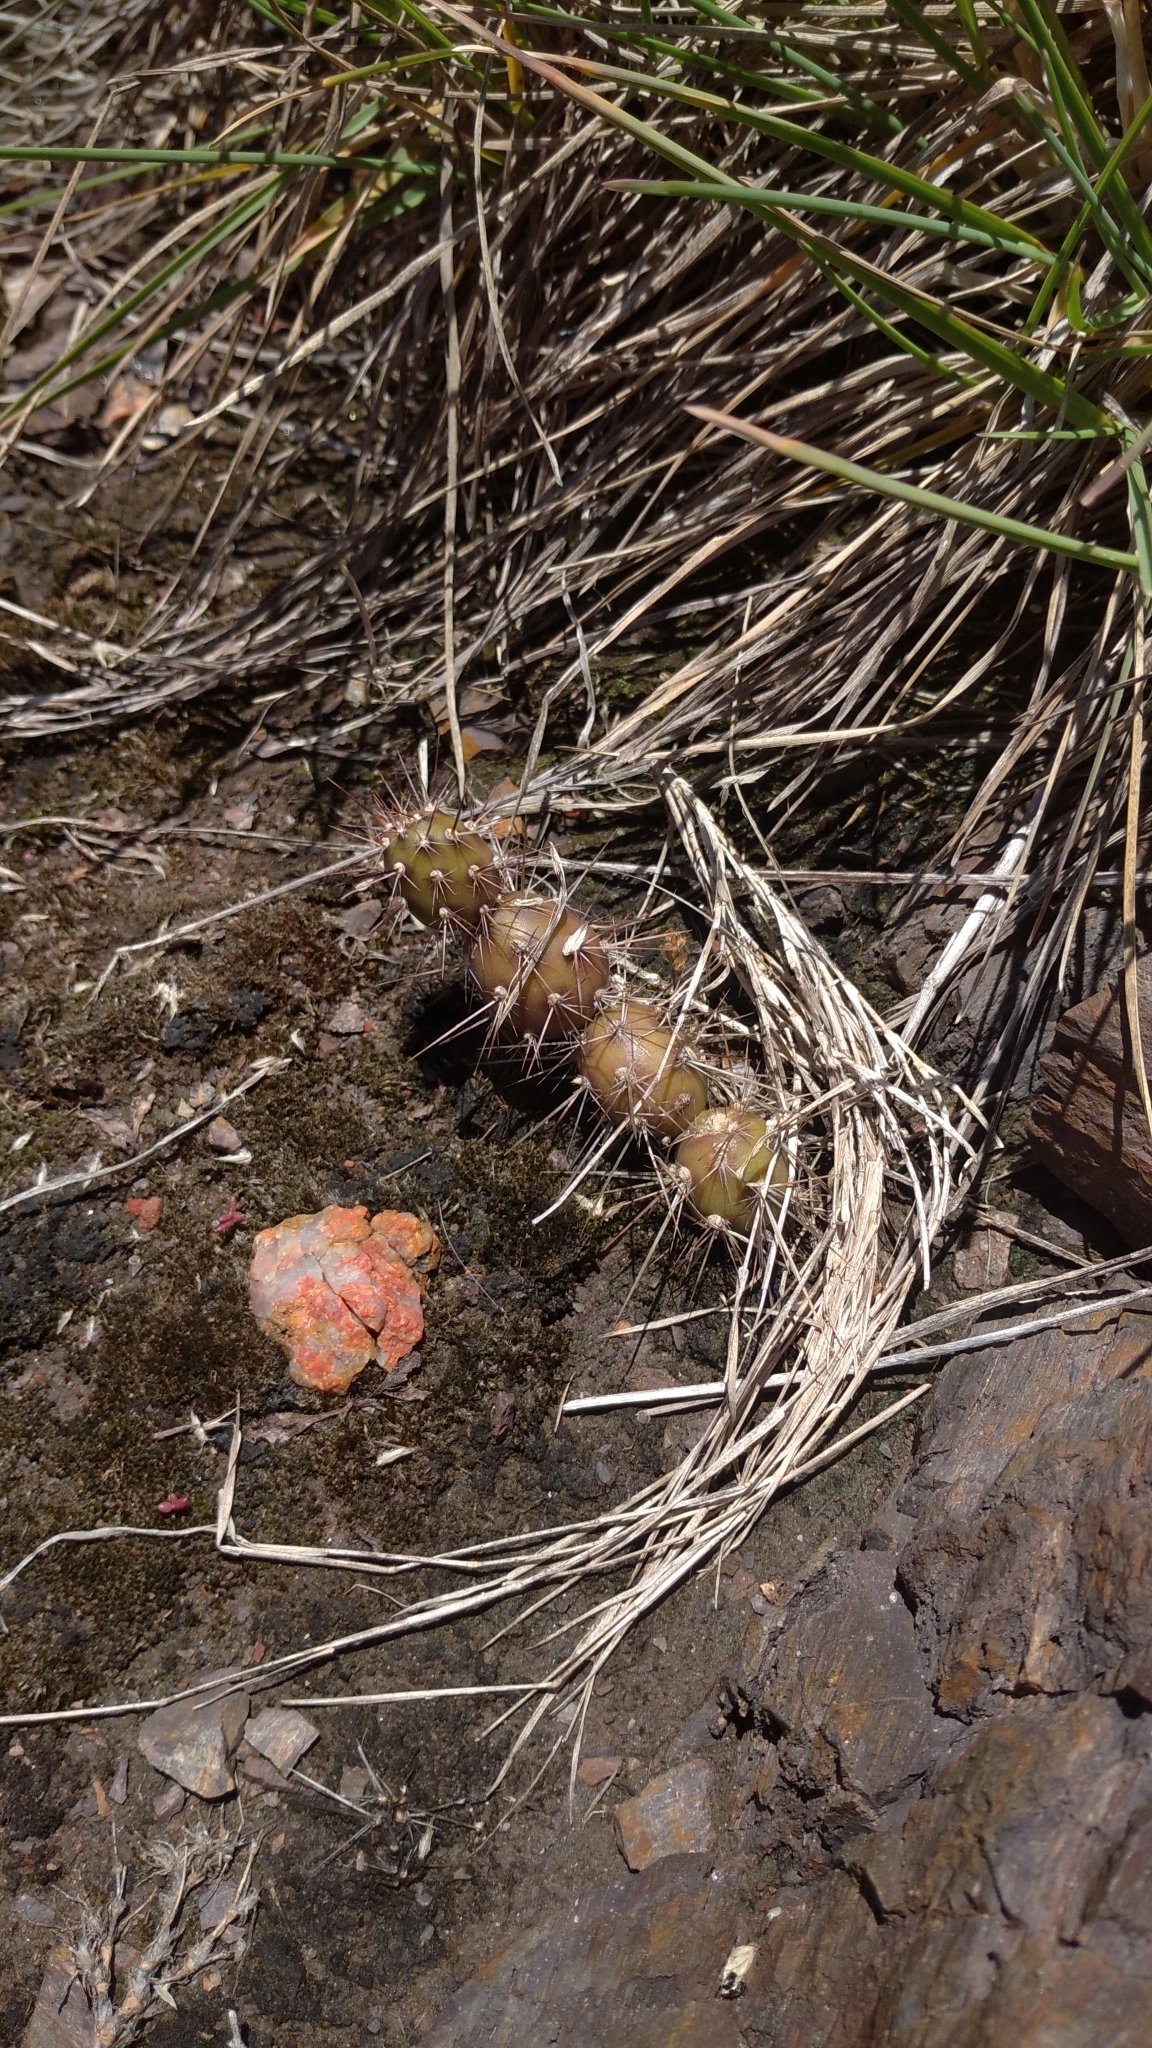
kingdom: Plantae
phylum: Tracheophyta
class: Magnoliopsida
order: Caryophyllales
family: Cactaceae
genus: Opuntia
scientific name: Opuntia aurantiaca
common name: Jointed pricklypear
